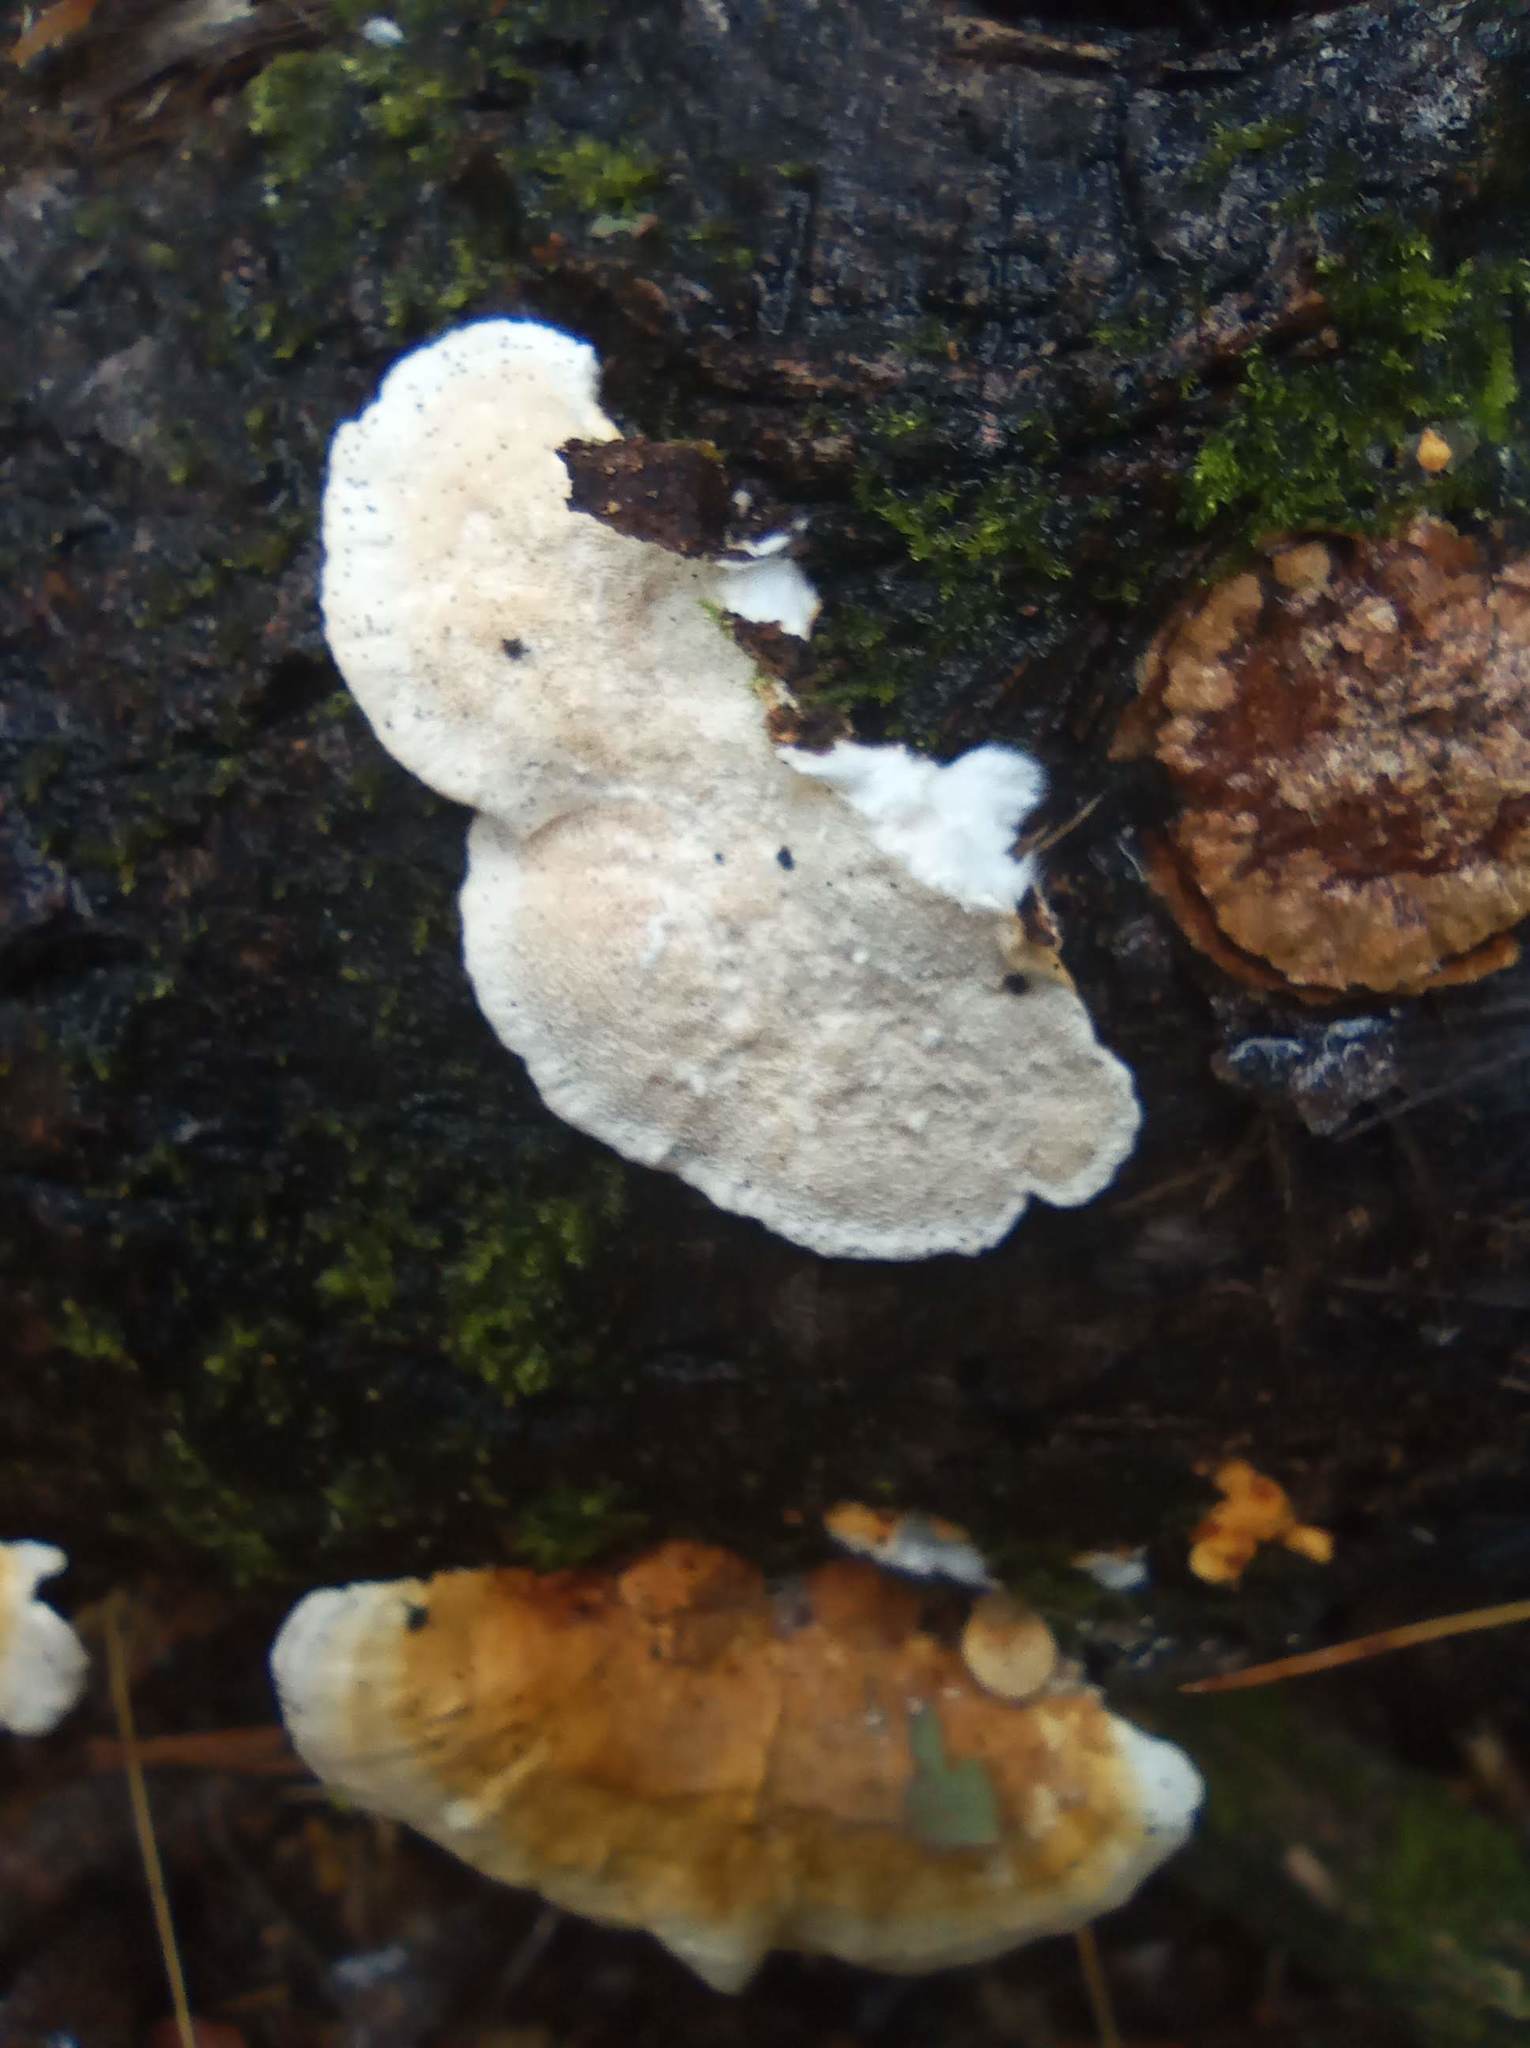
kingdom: Fungi
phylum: Basidiomycota
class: Agaricomycetes
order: Polyporales
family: Polyporaceae
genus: Trametes
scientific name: Trametes ochracea
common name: Ochre bracket
